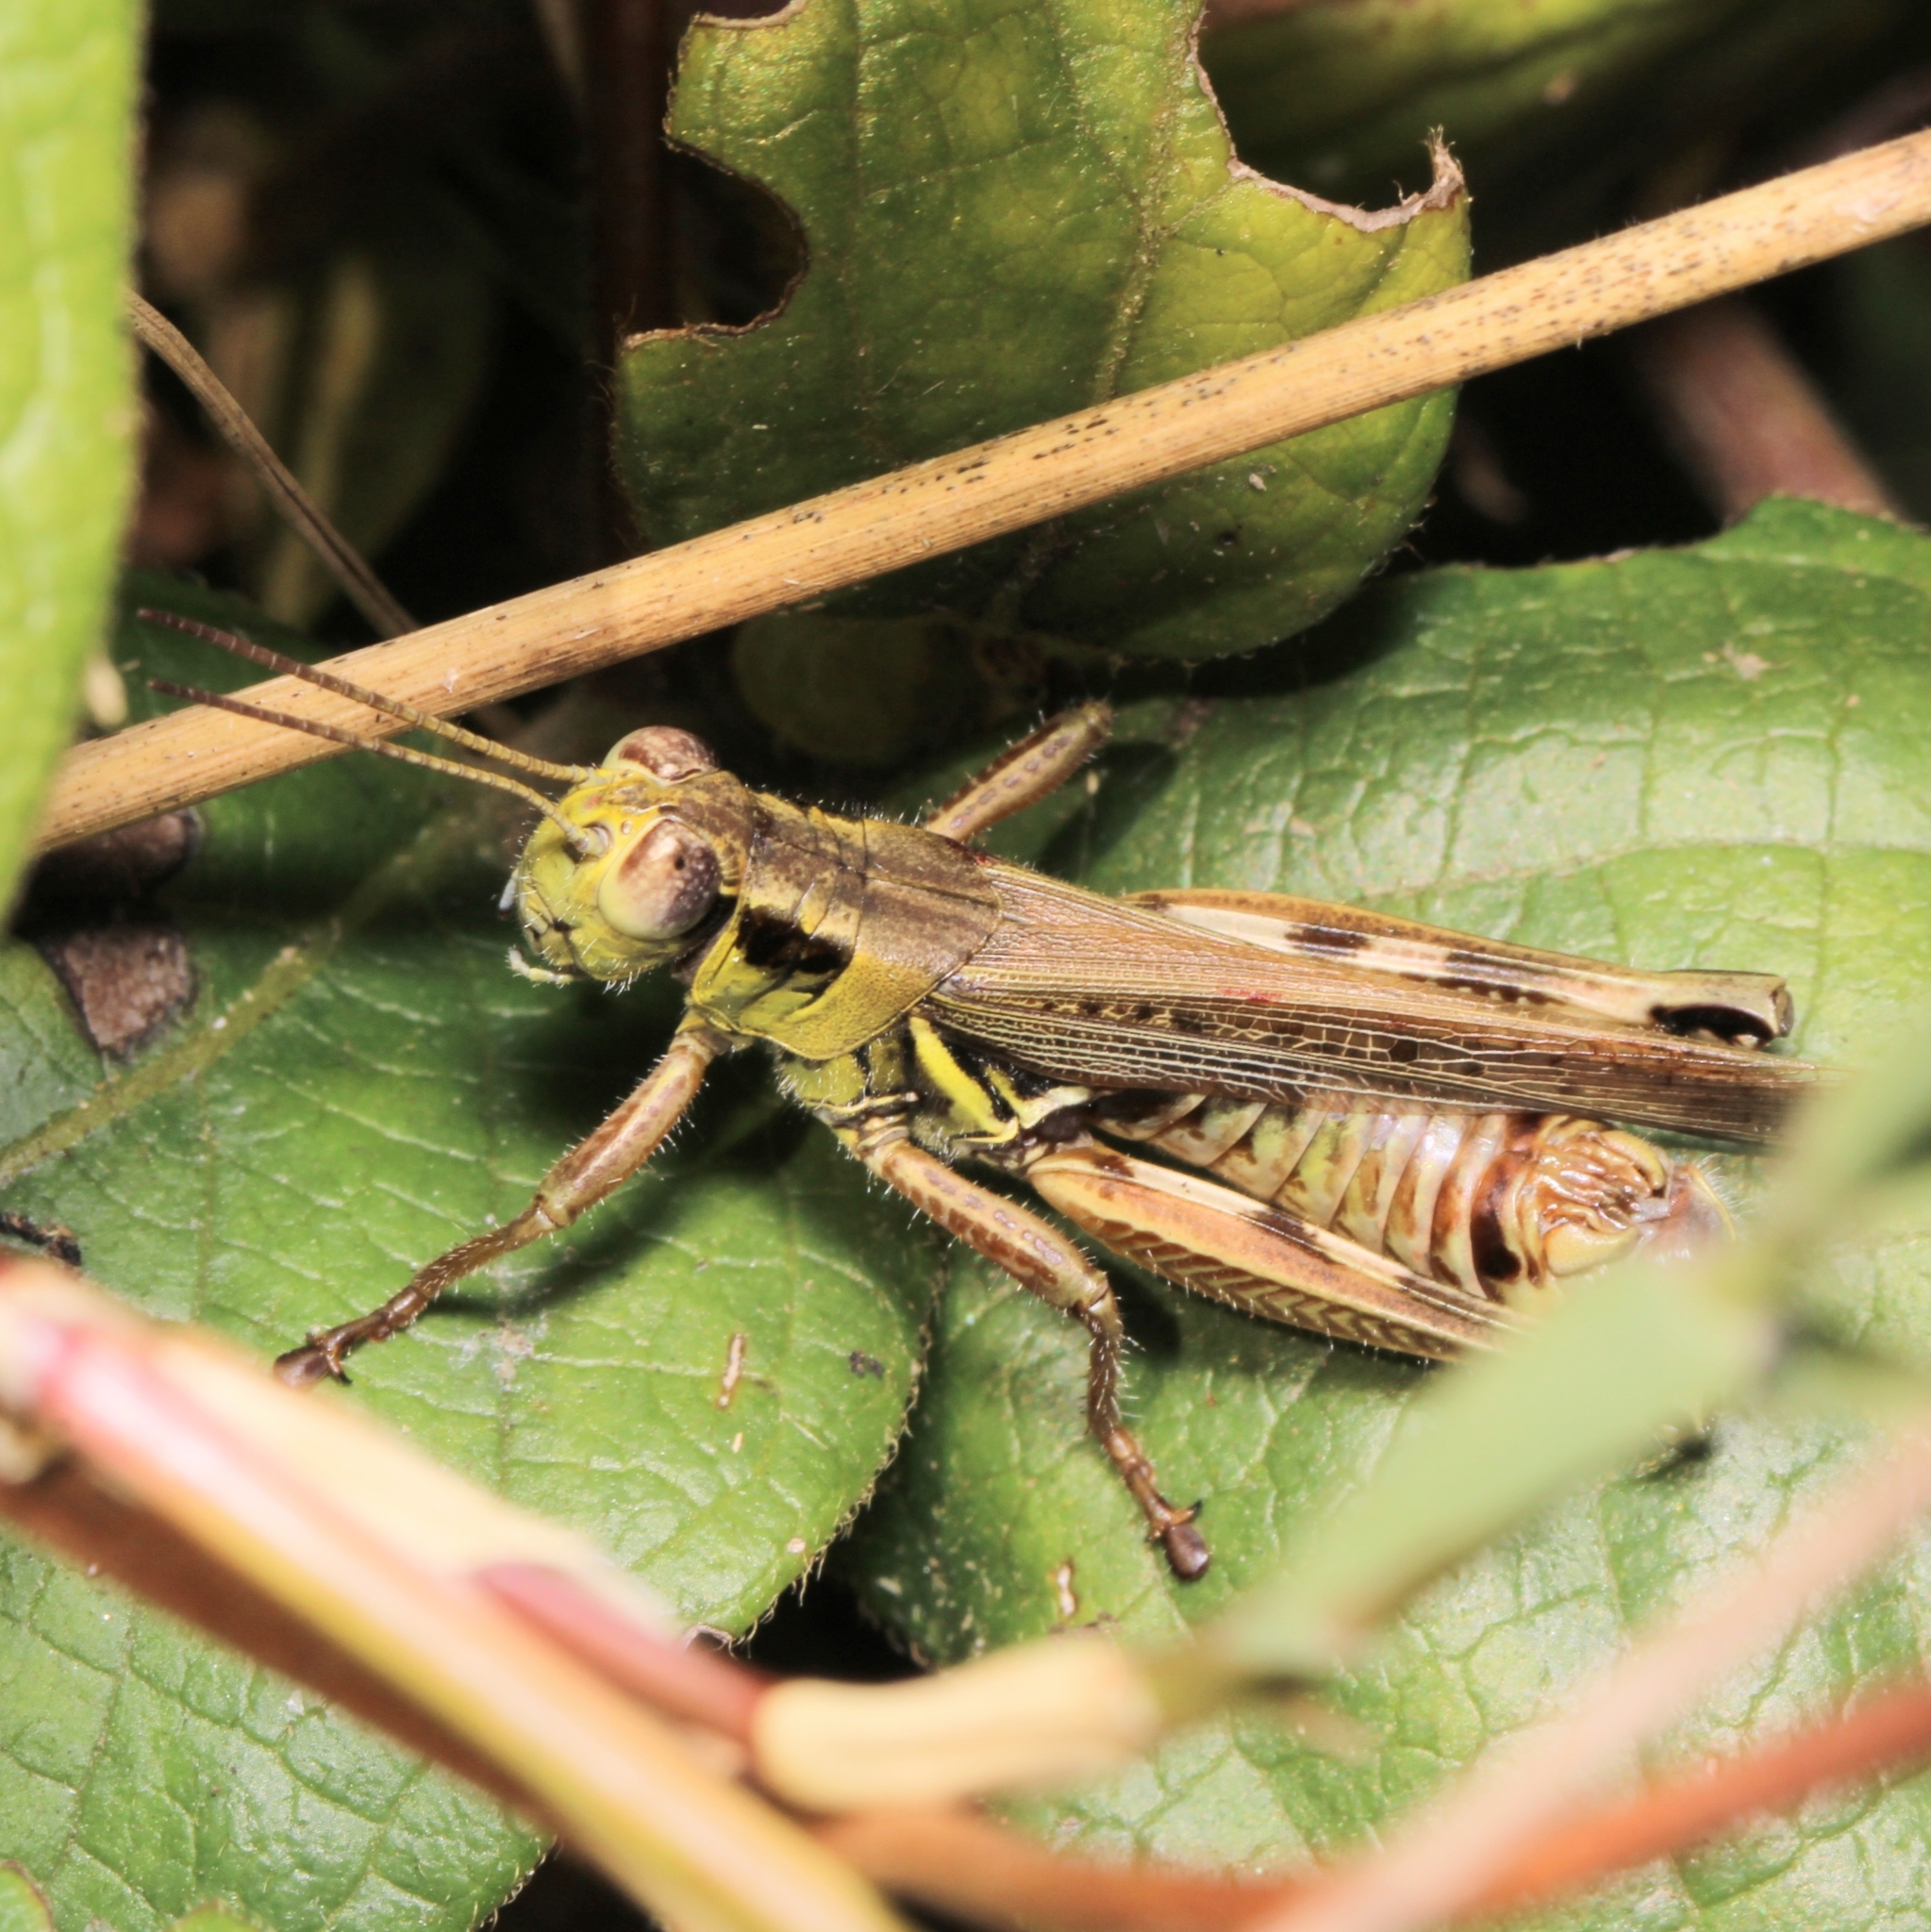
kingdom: Animalia
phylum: Arthropoda
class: Insecta
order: Orthoptera
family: Acrididae
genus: Melanoplus
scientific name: Melanoplus femurrubrum
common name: Red-legged grasshopper
